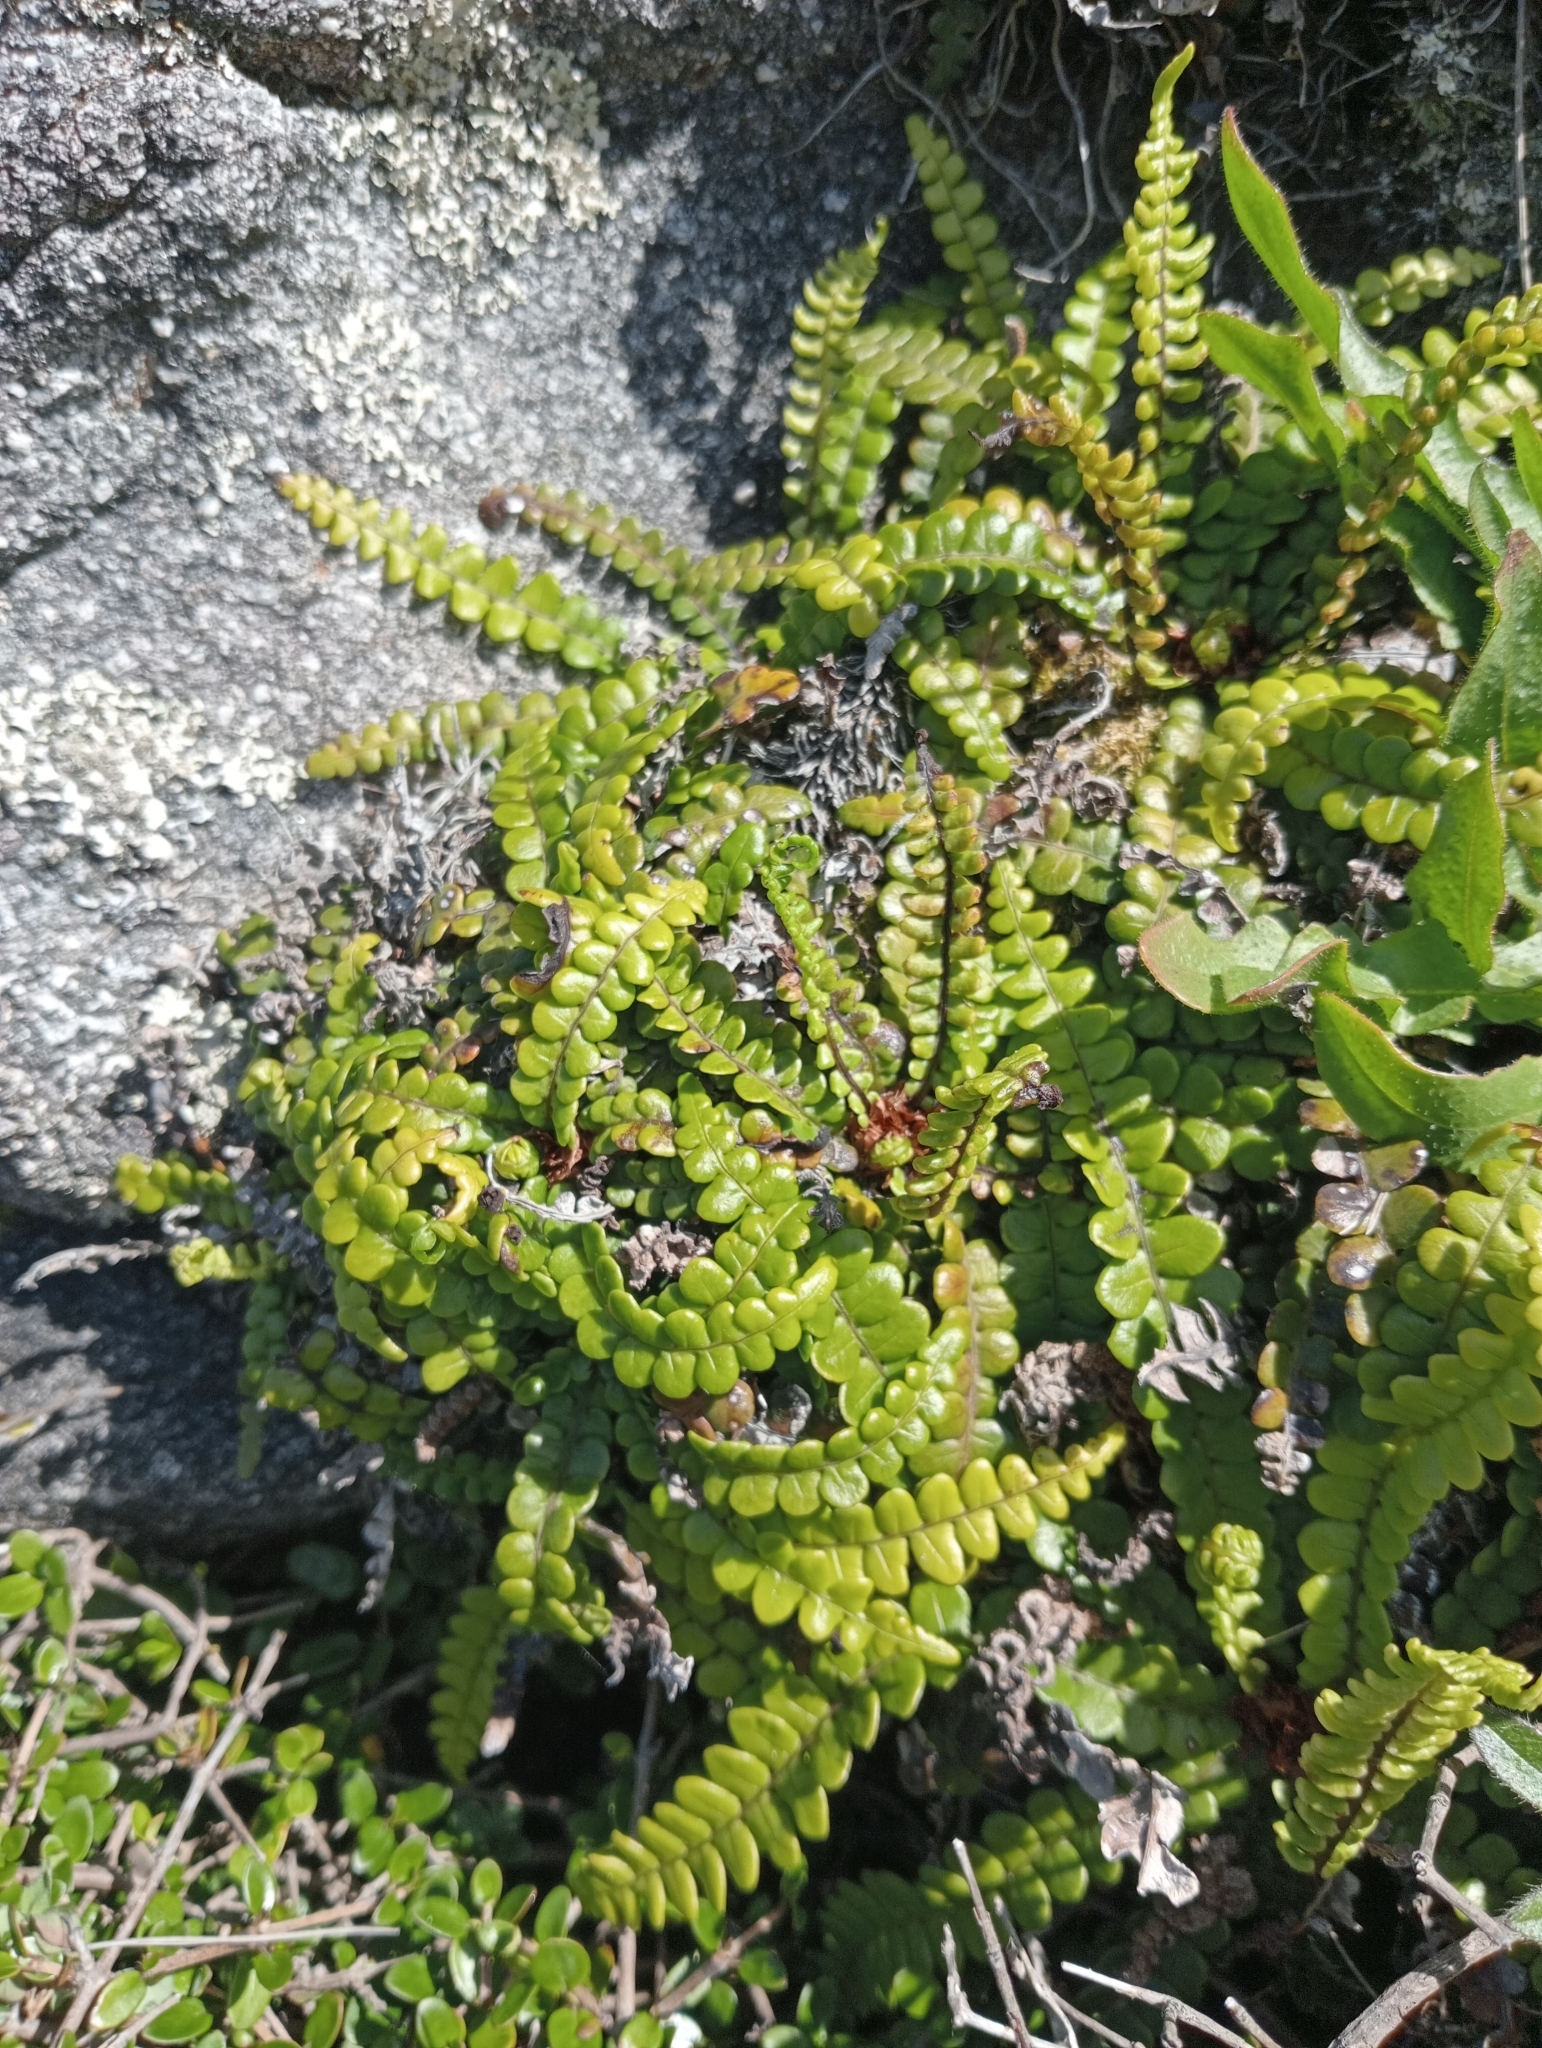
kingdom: Plantae
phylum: Tracheophyta
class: Polypodiopsida
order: Polypodiales
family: Blechnaceae
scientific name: Blechnaceae
